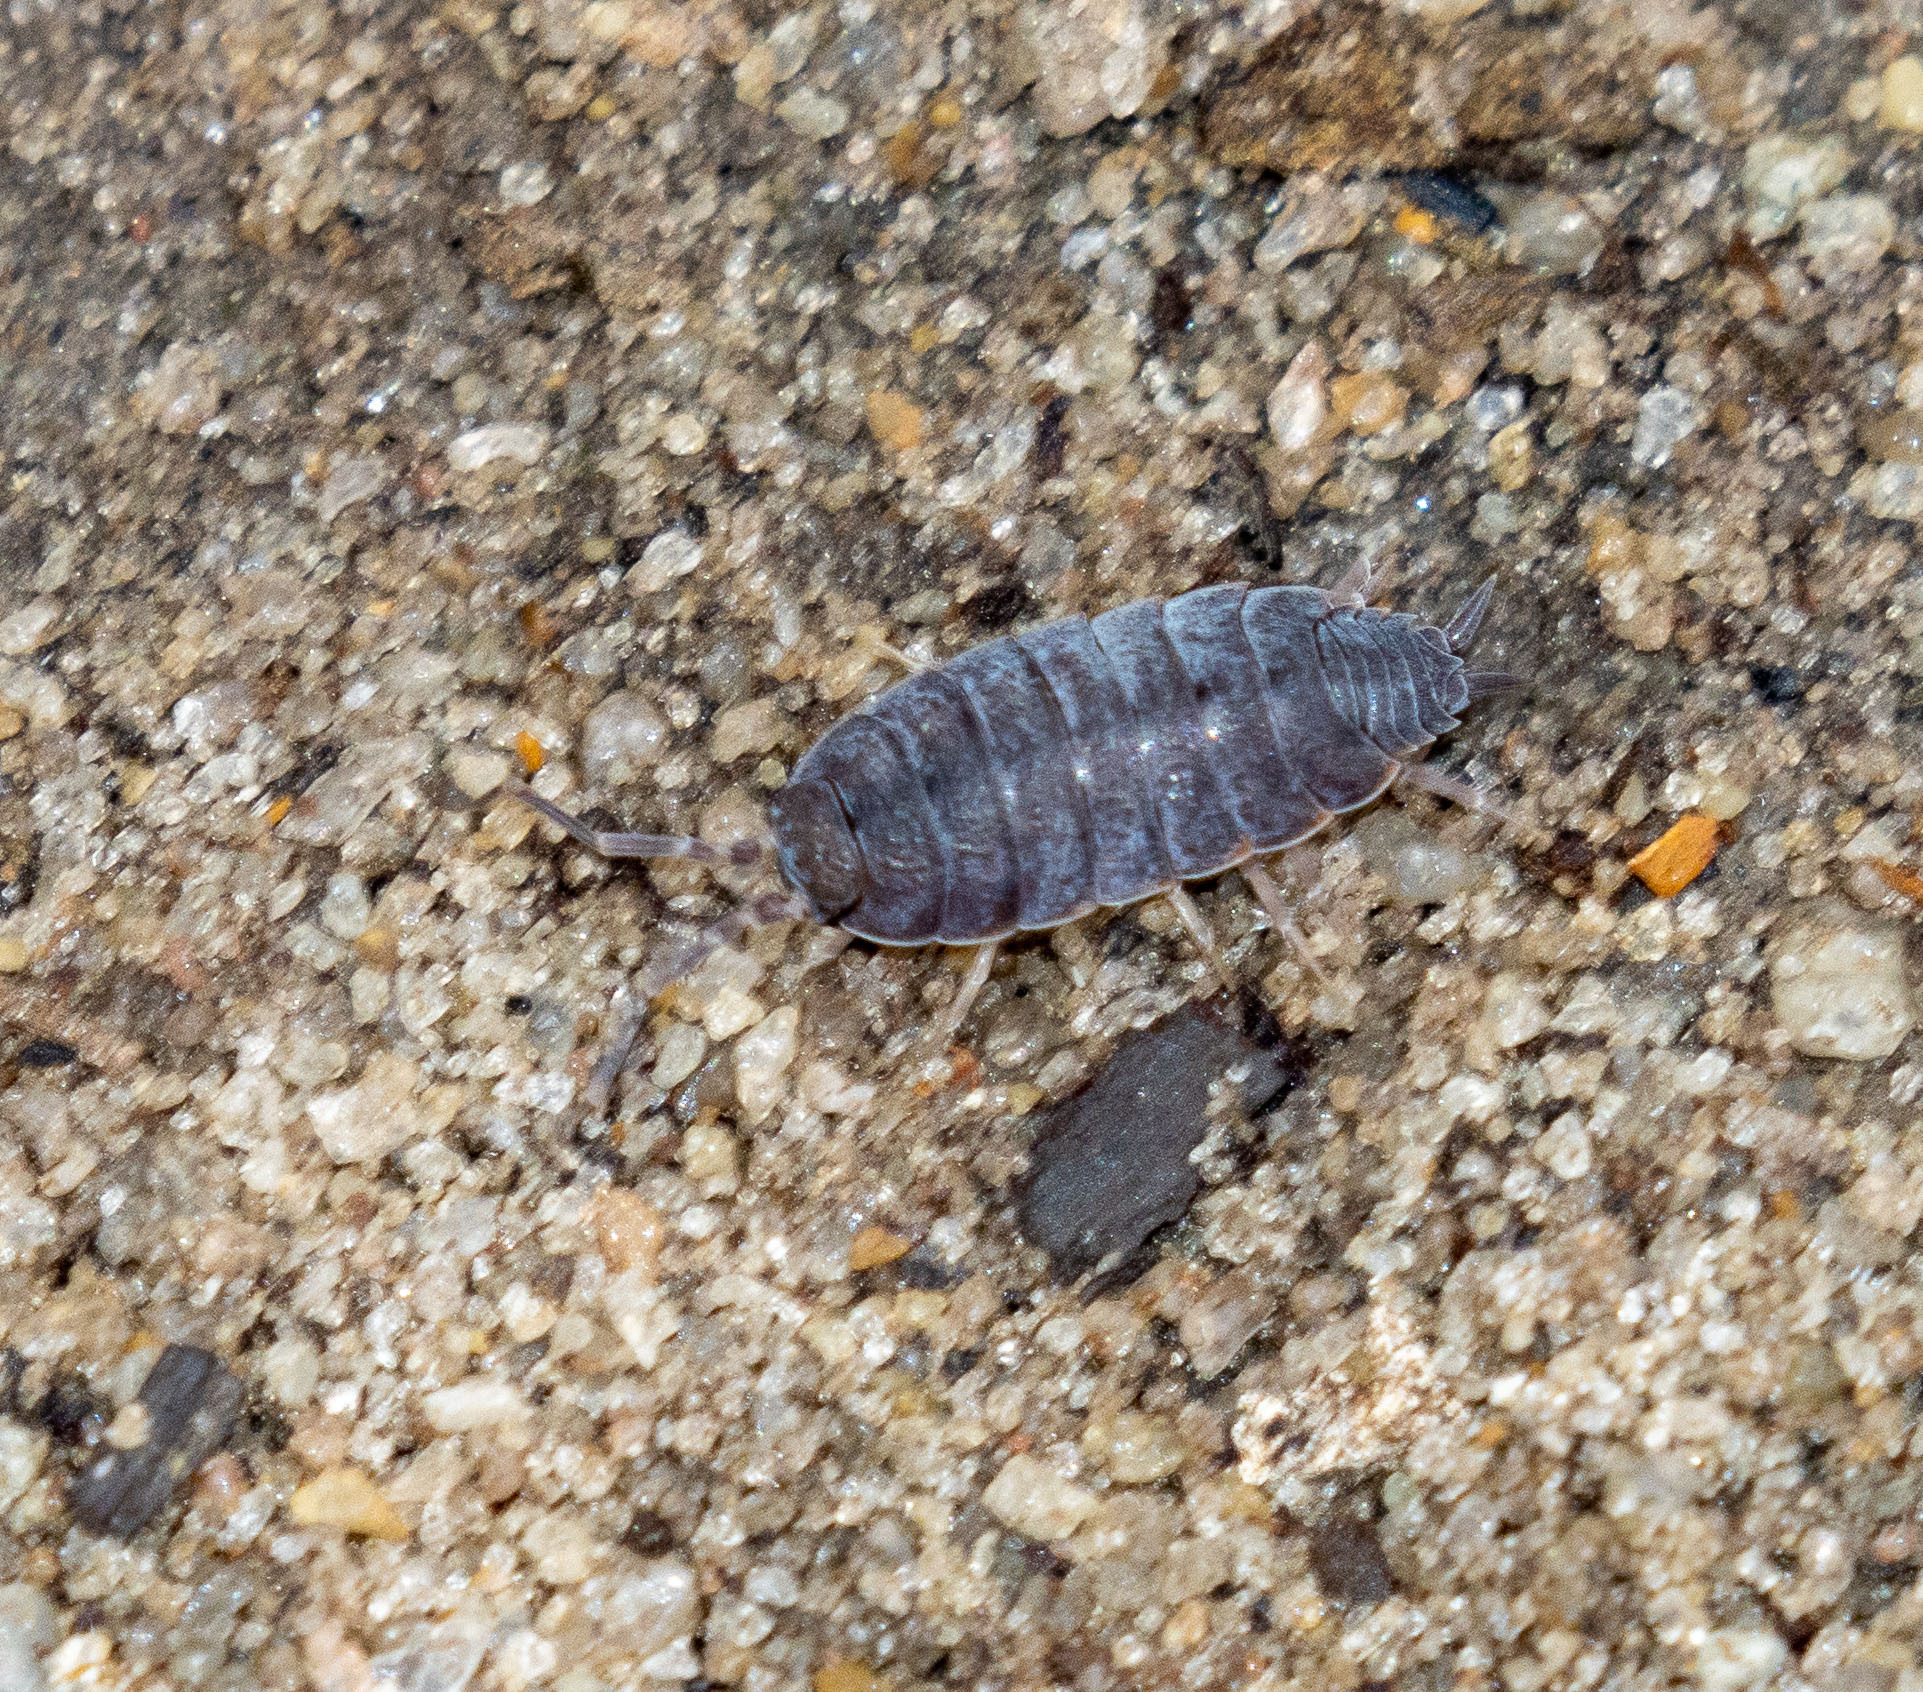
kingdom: Animalia
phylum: Arthropoda
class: Malacostraca
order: Isopoda
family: Porcellionidae
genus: Porcellionides
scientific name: Porcellionides
